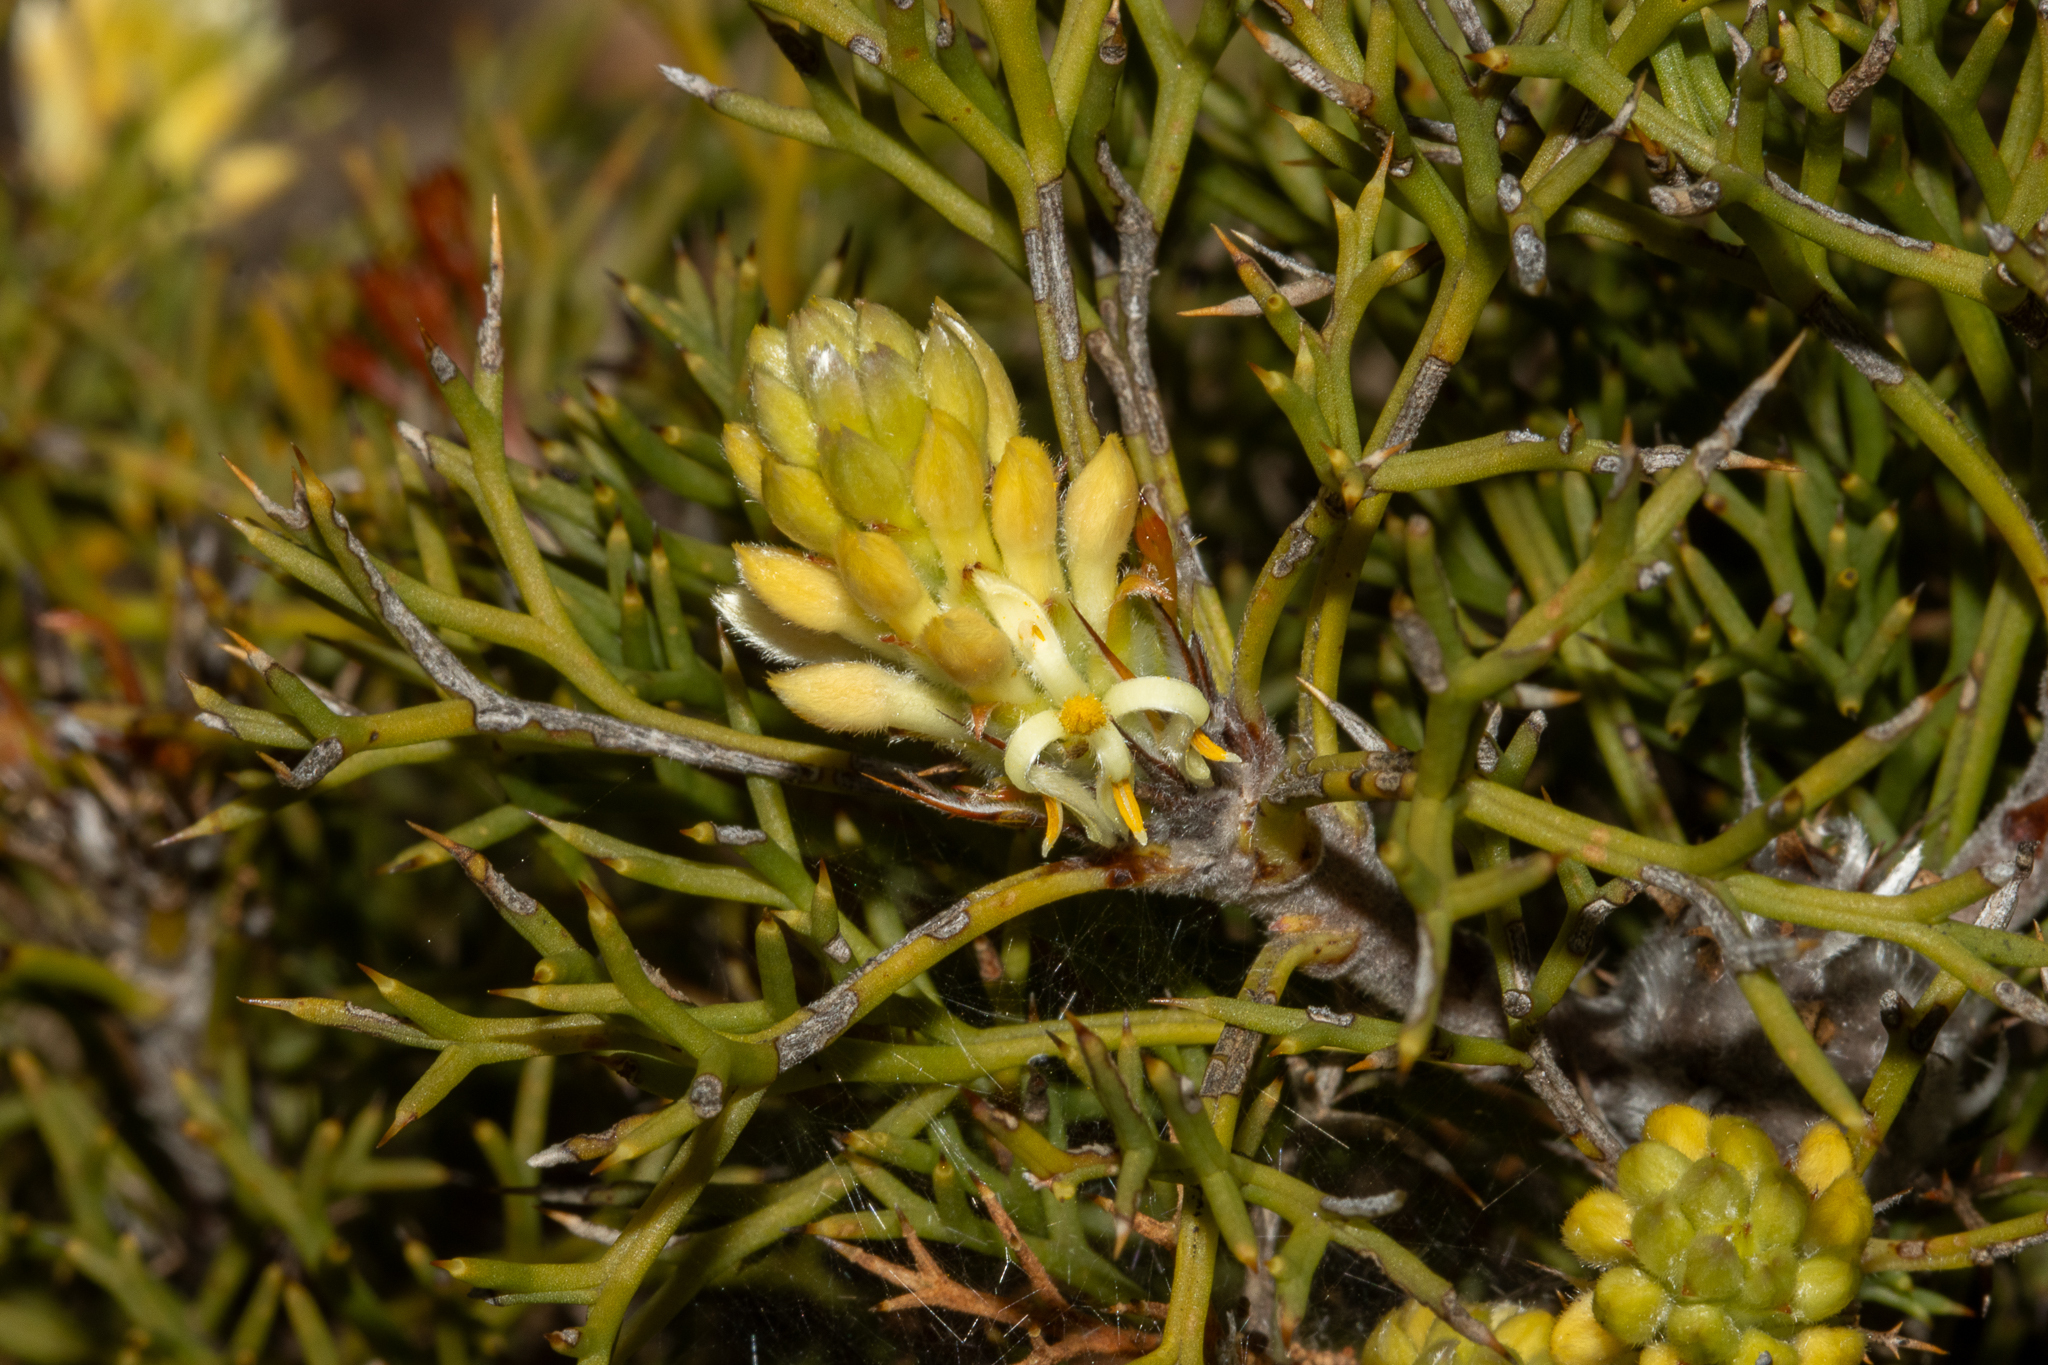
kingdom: Plantae
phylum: Tracheophyta
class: Magnoliopsida
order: Proteales
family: Proteaceae
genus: Petrophile
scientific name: Petrophile multisecta
